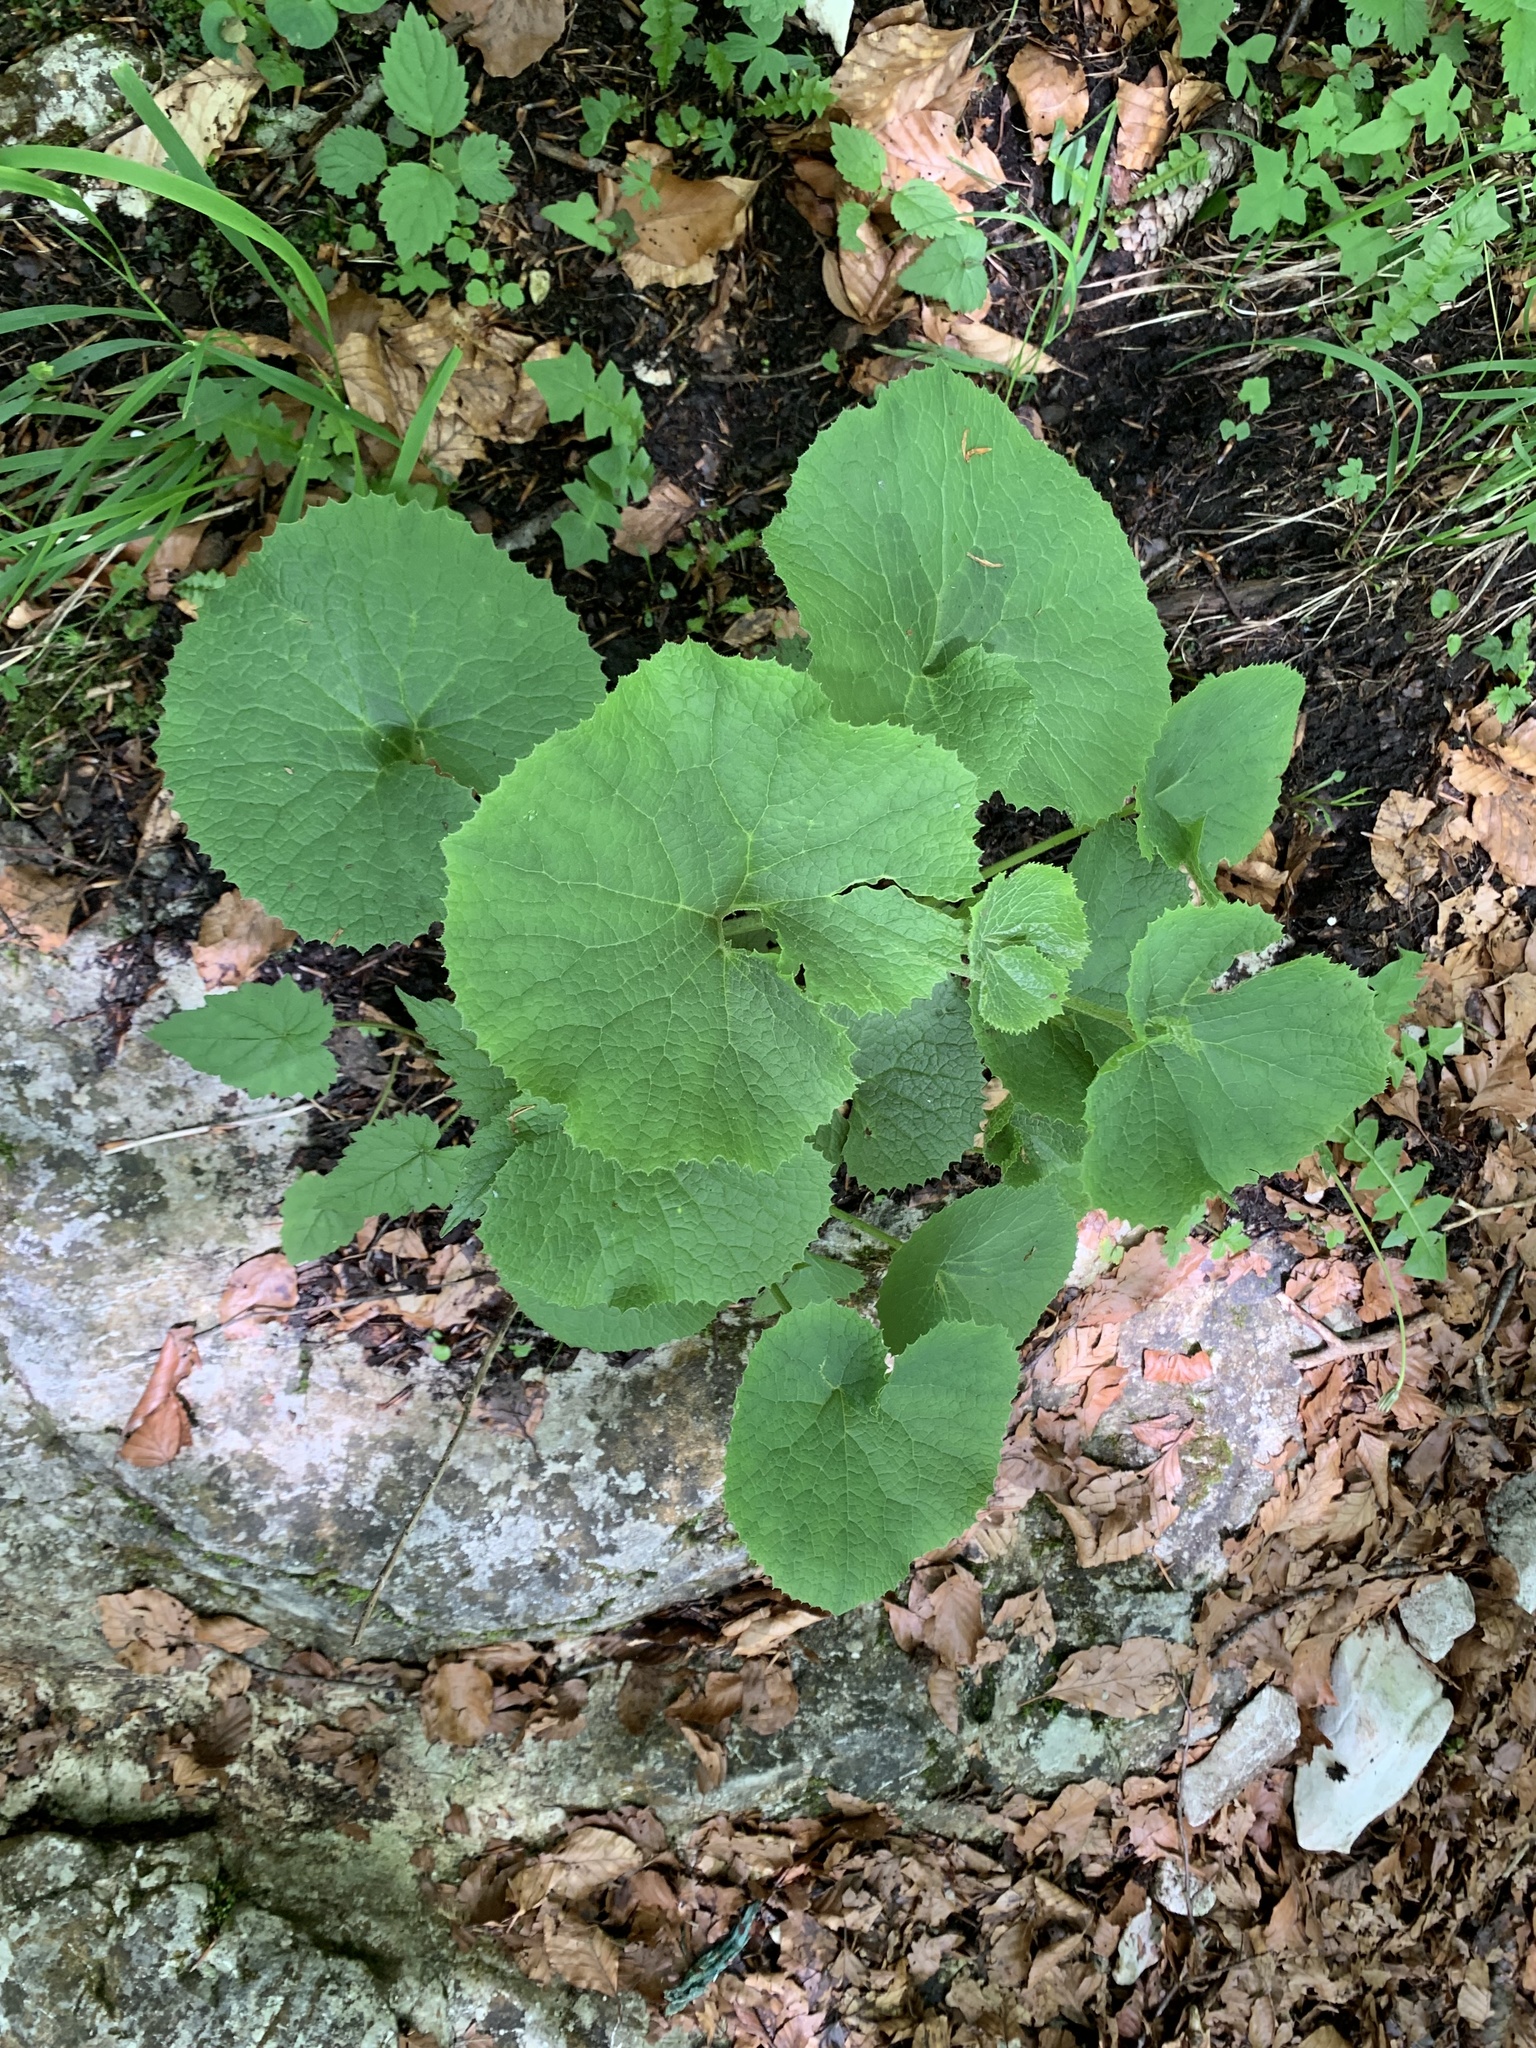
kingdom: Plantae
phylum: Tracheophyta
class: Magnoliopsida
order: Asterales
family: Asteraceae
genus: Adenostyles
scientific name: Adenostyles alpina
